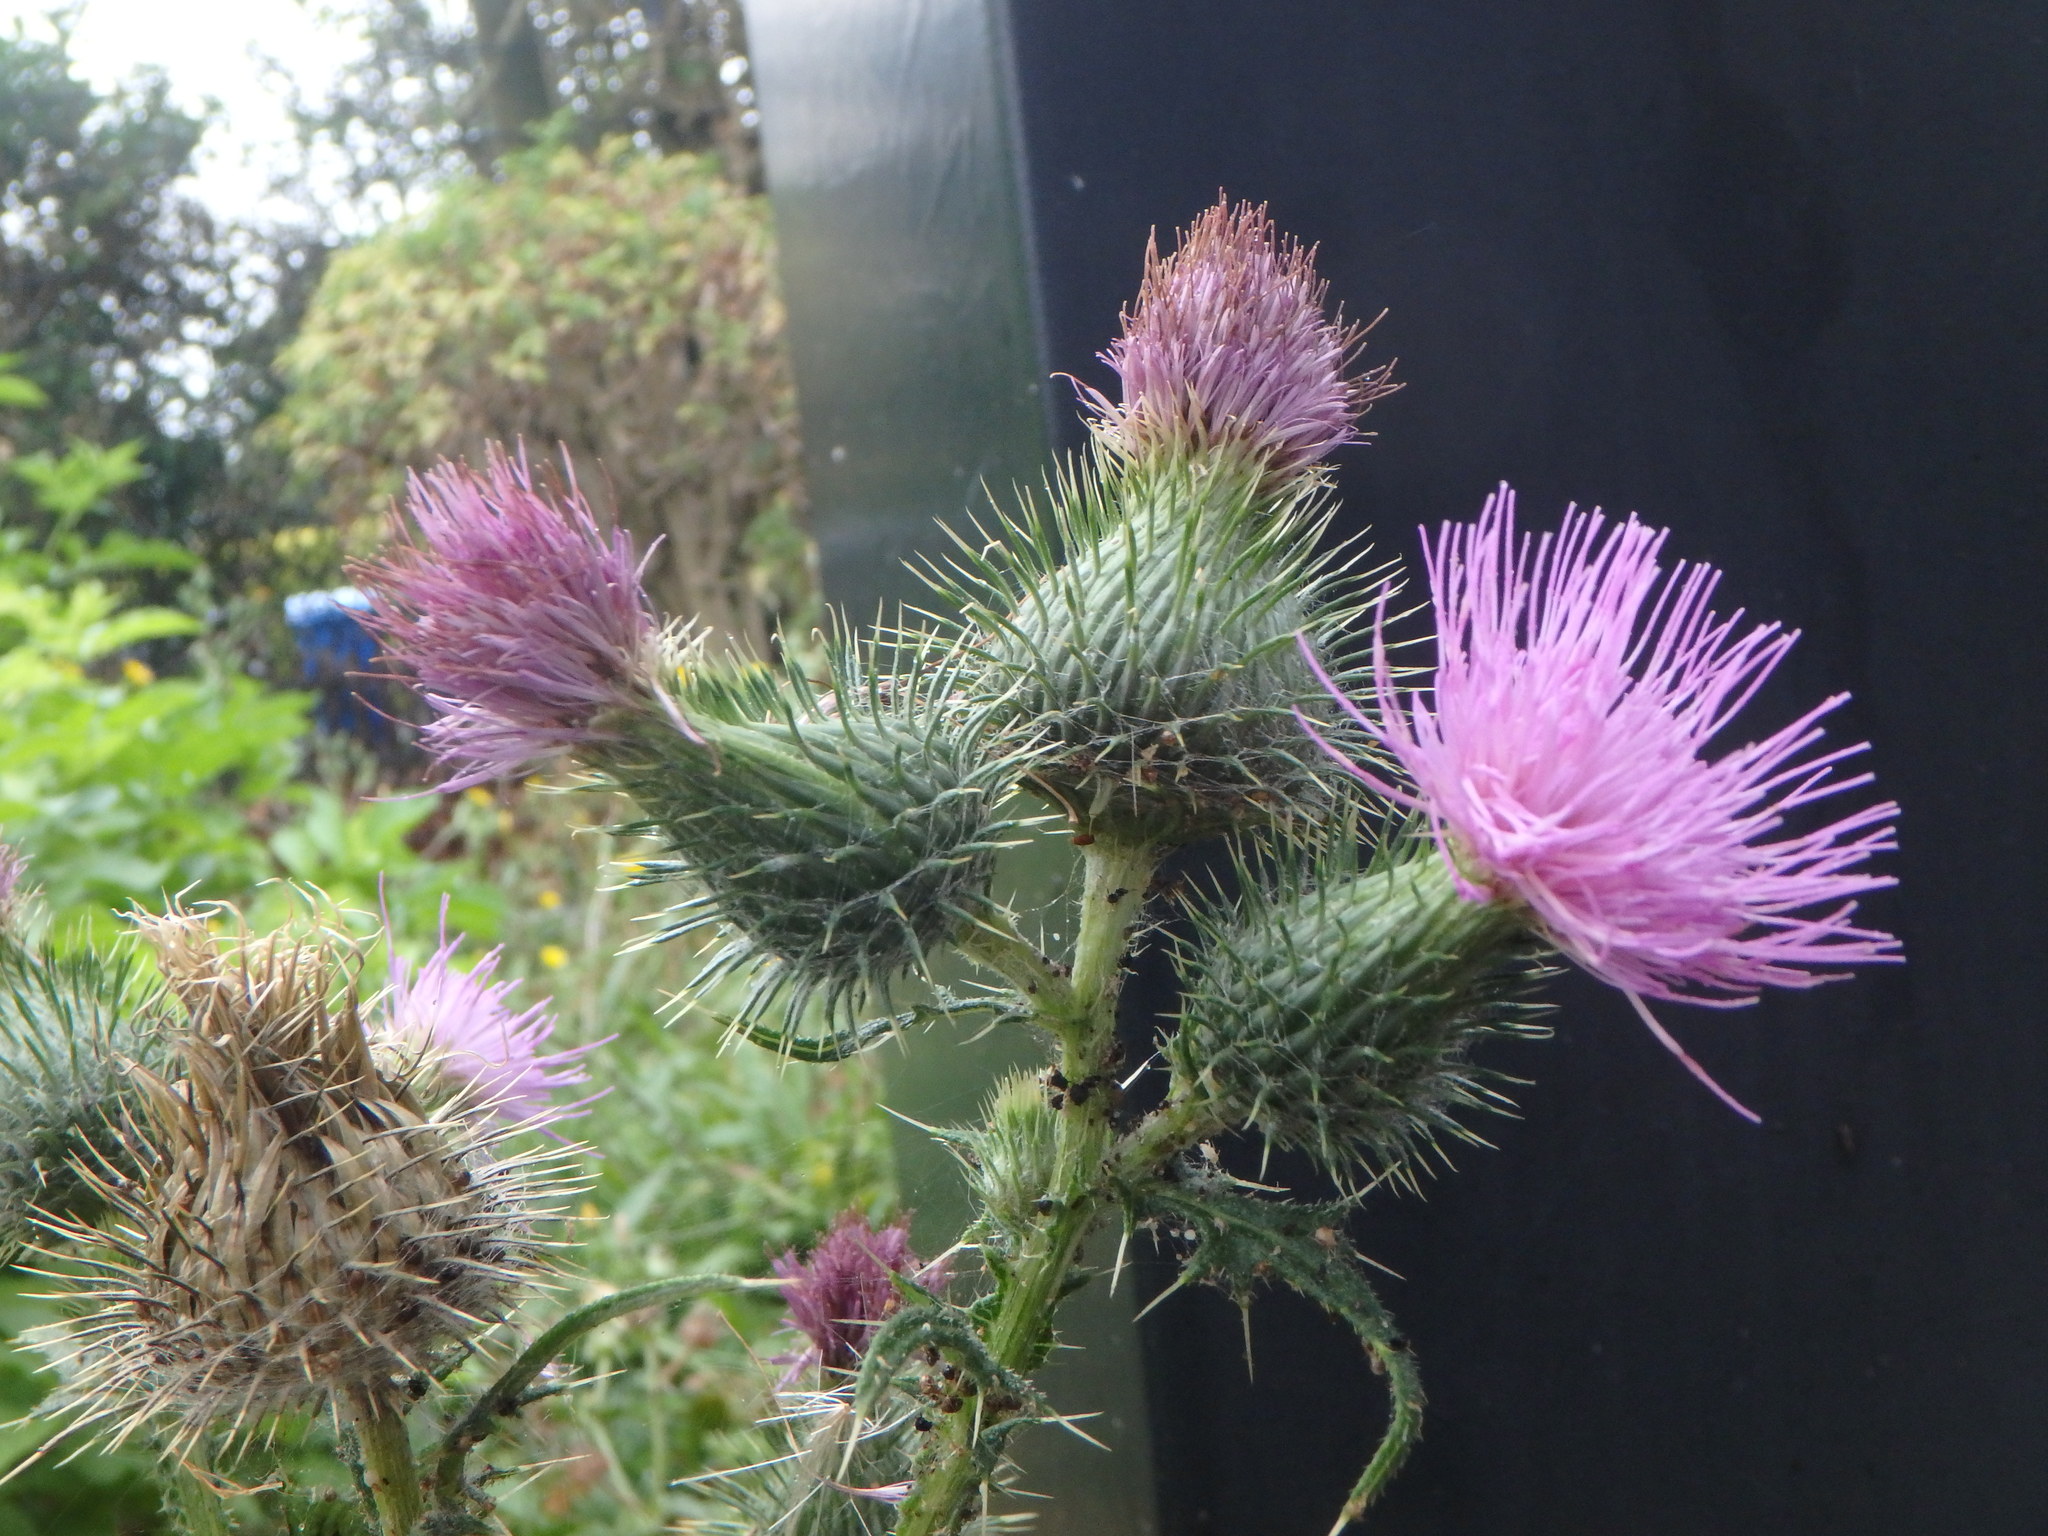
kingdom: Plantae
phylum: Tracheophyta
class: Magnoliopsida
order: Asterales
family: Asteraceae
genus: Cirsium
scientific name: Cirsium vulgare
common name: Bull thistle
